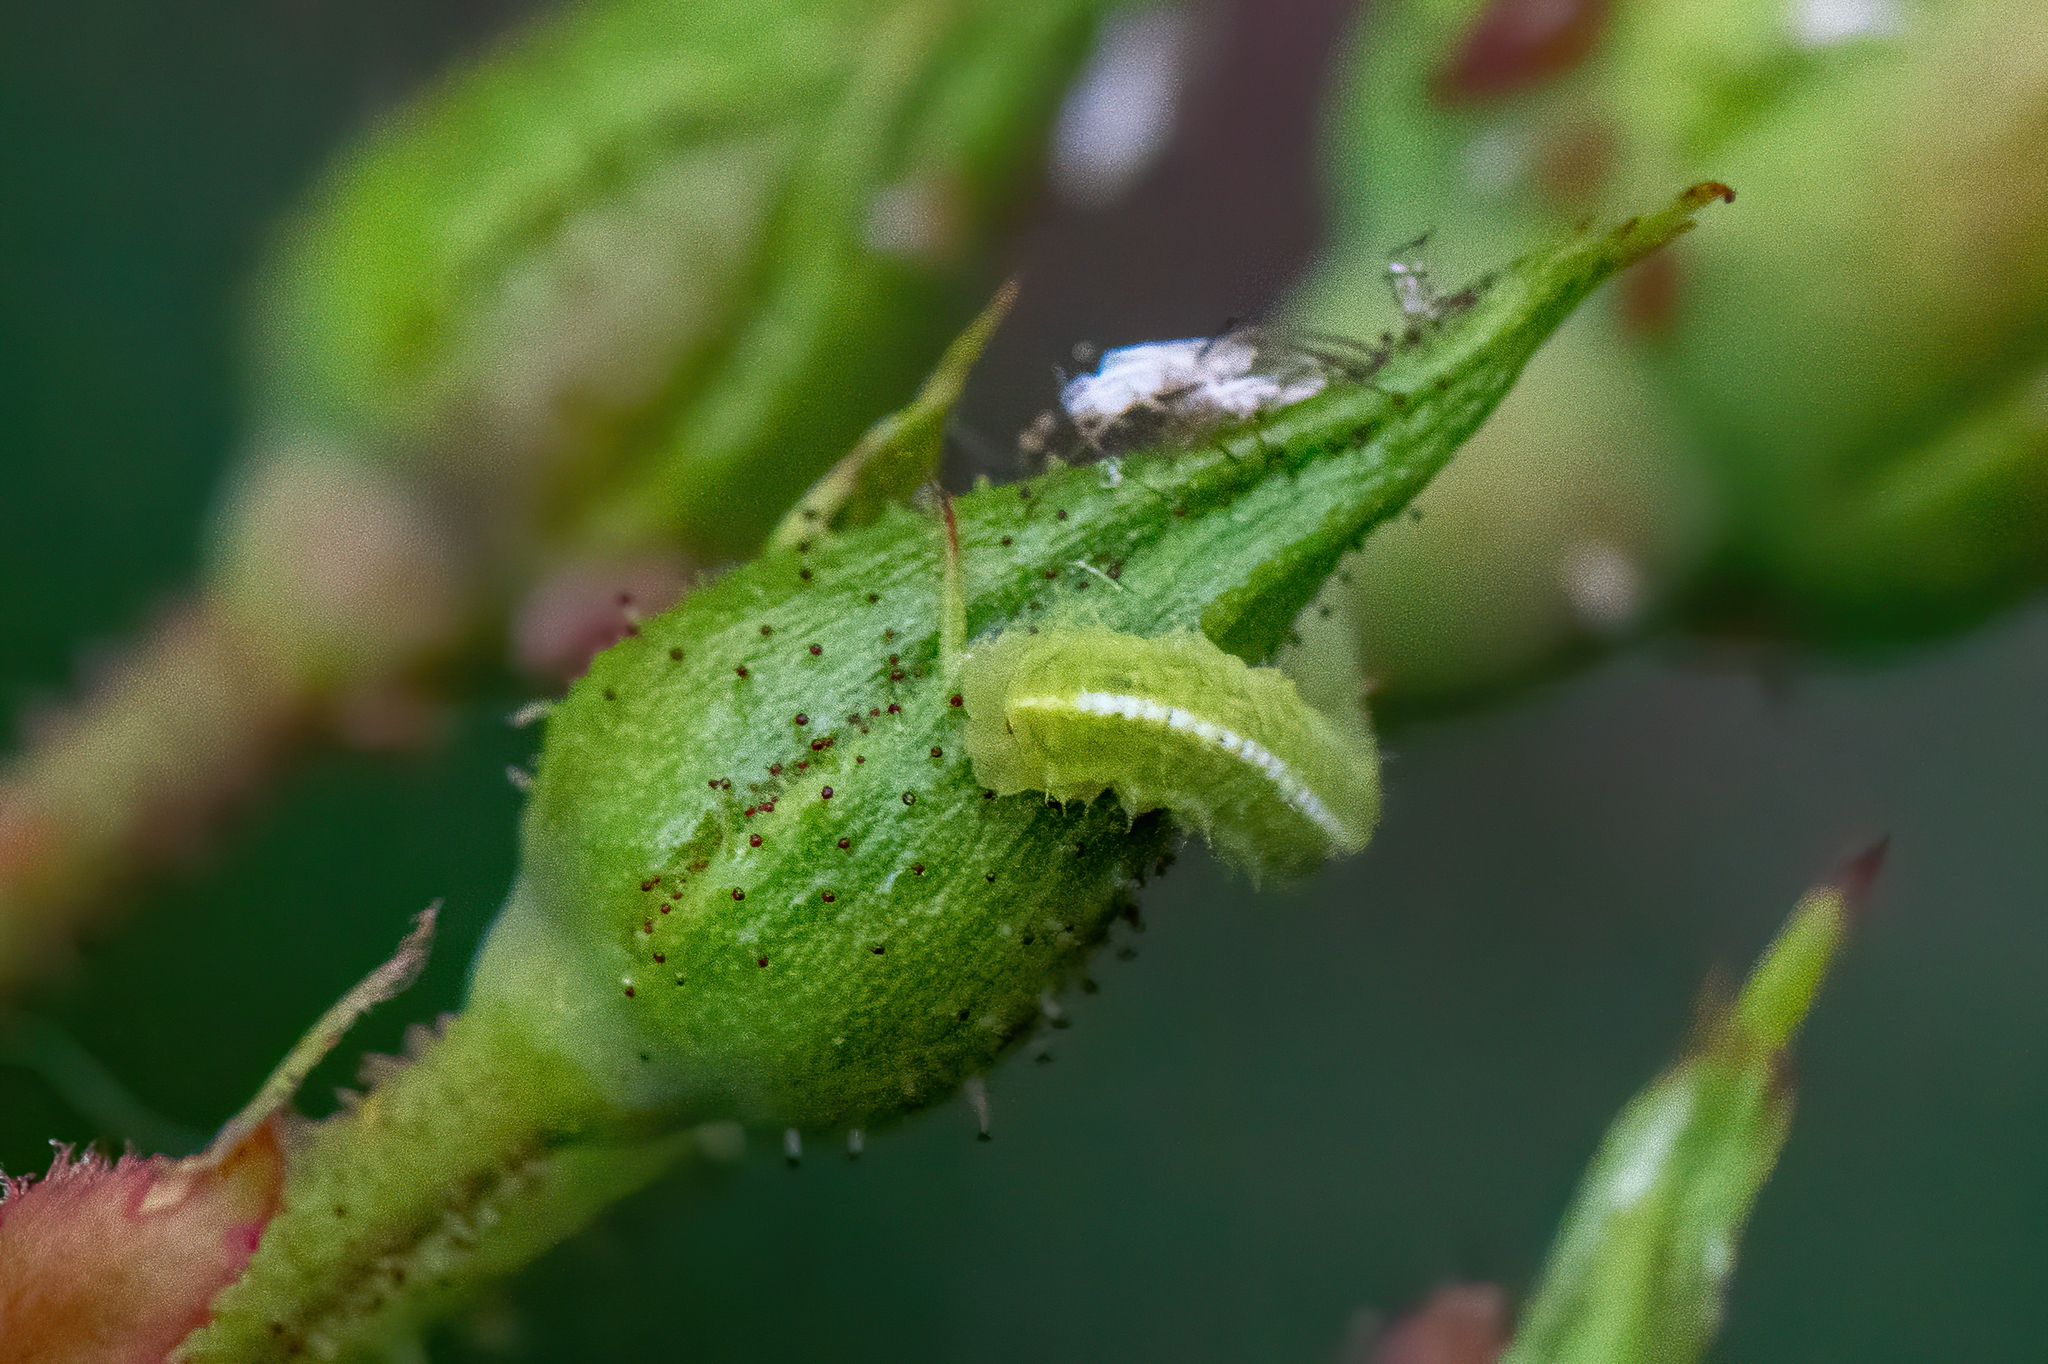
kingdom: Animalia
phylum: Arthropoda
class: Insecta
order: Diptera
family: Syrphidae
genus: Scaeva
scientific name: Scaeva affinis
